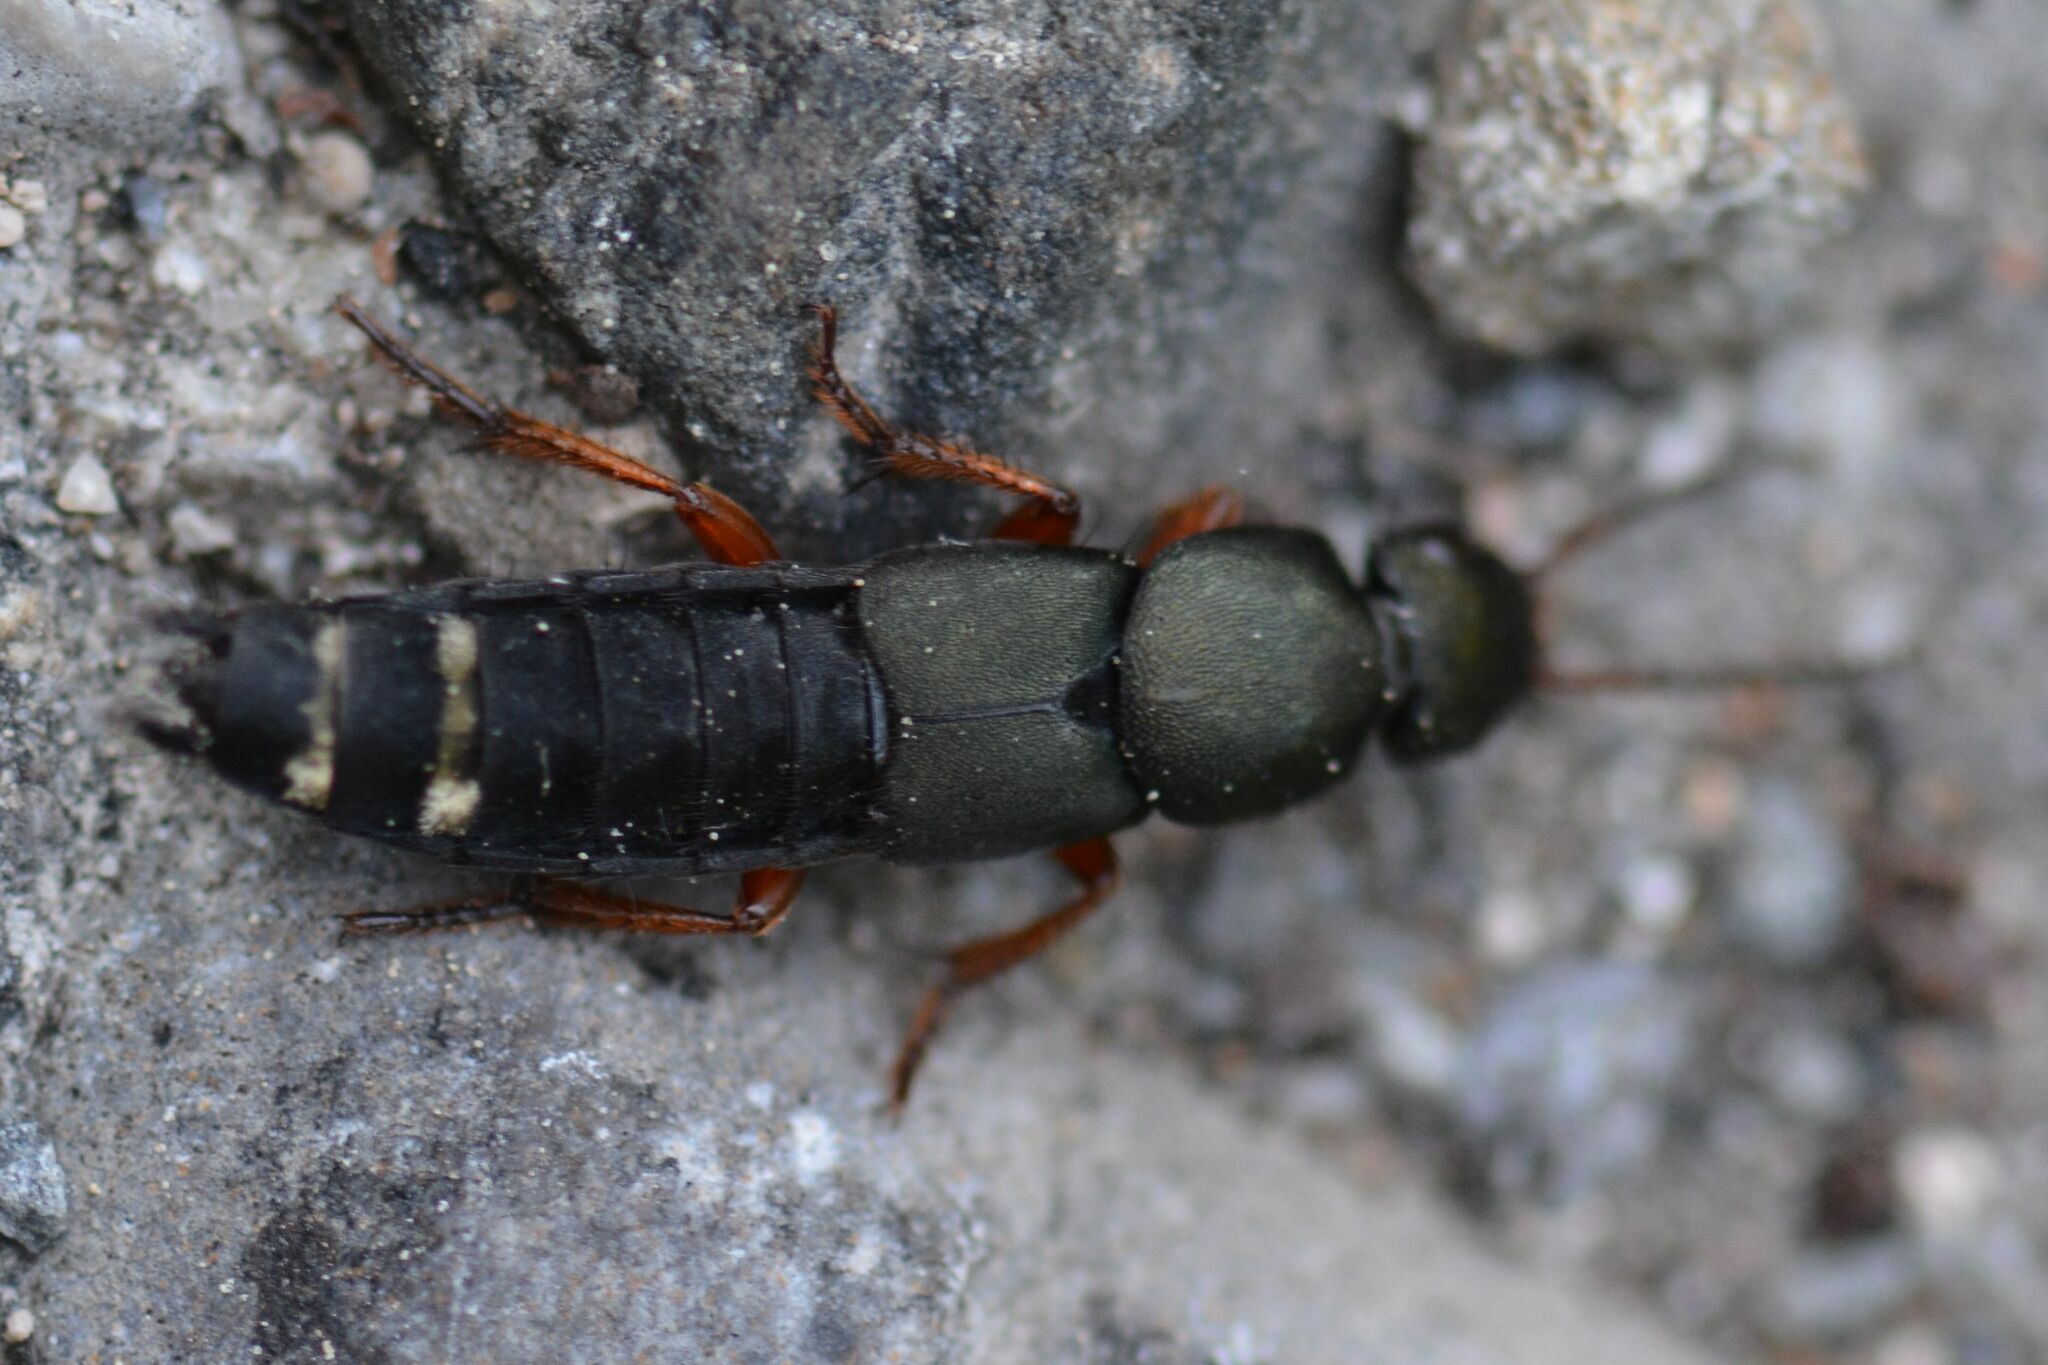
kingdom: Animalia
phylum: Arthropoda
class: Insecta
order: Coleoptera
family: Staphylinidae
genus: Platydracus
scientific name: Platydracus fulvipes
